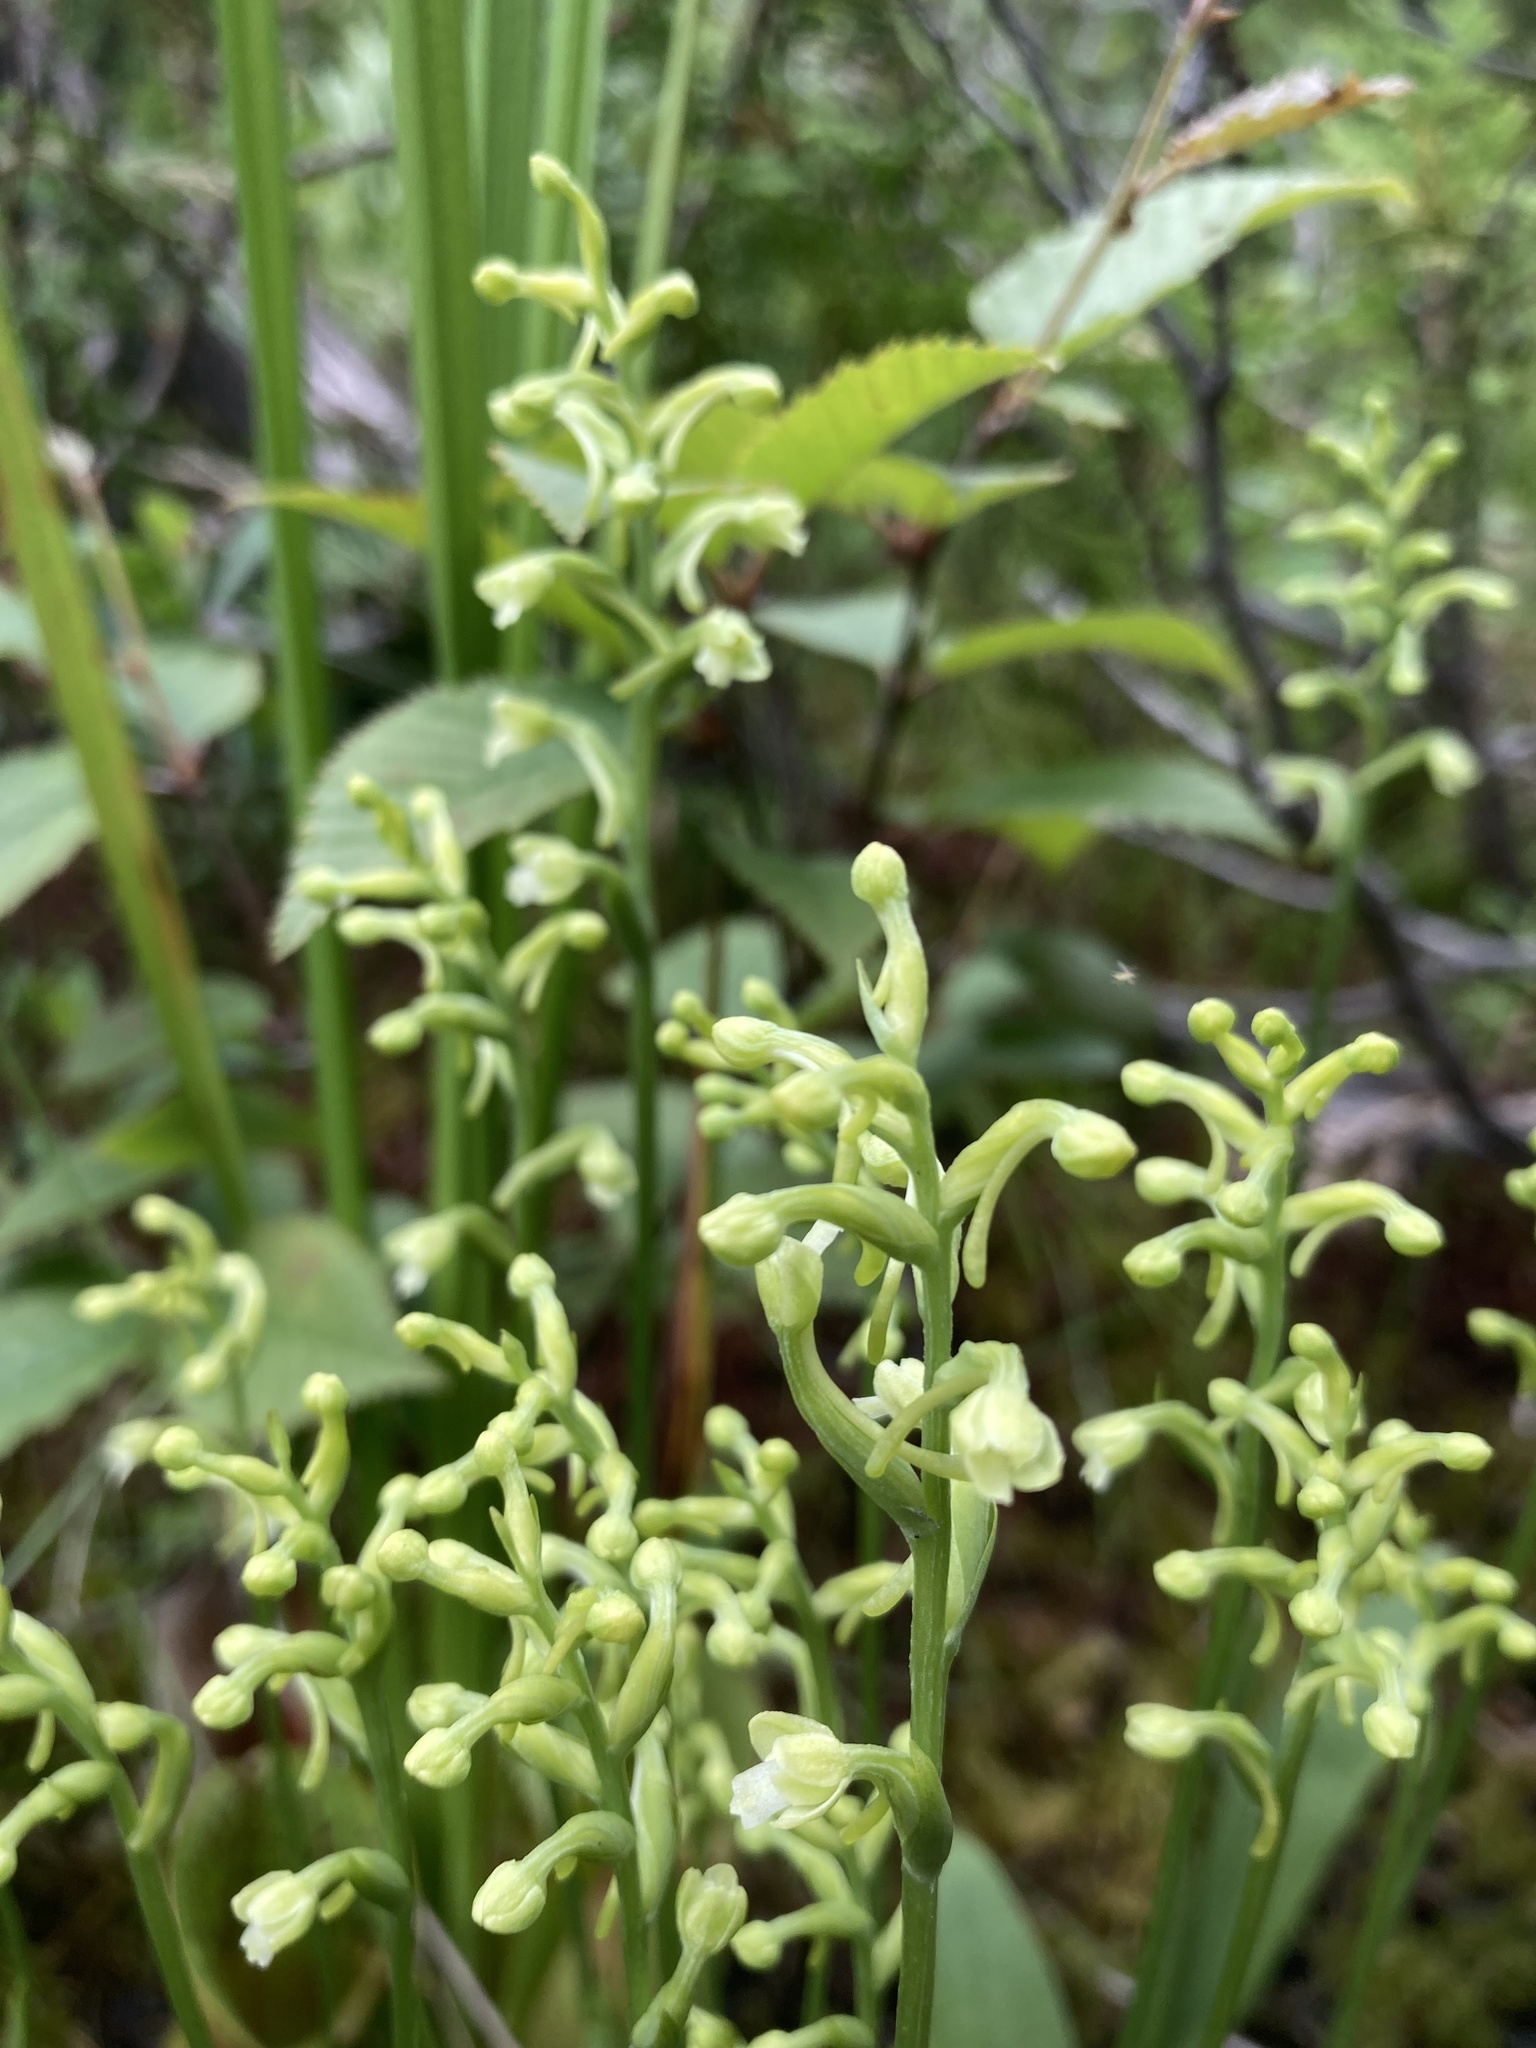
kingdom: Plantae
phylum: Tracheophyta
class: Liliopsida
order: Asparagales
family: Orchidaceae
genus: Platanthera
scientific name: Platanthera clavellata
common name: Club-spur orchid
